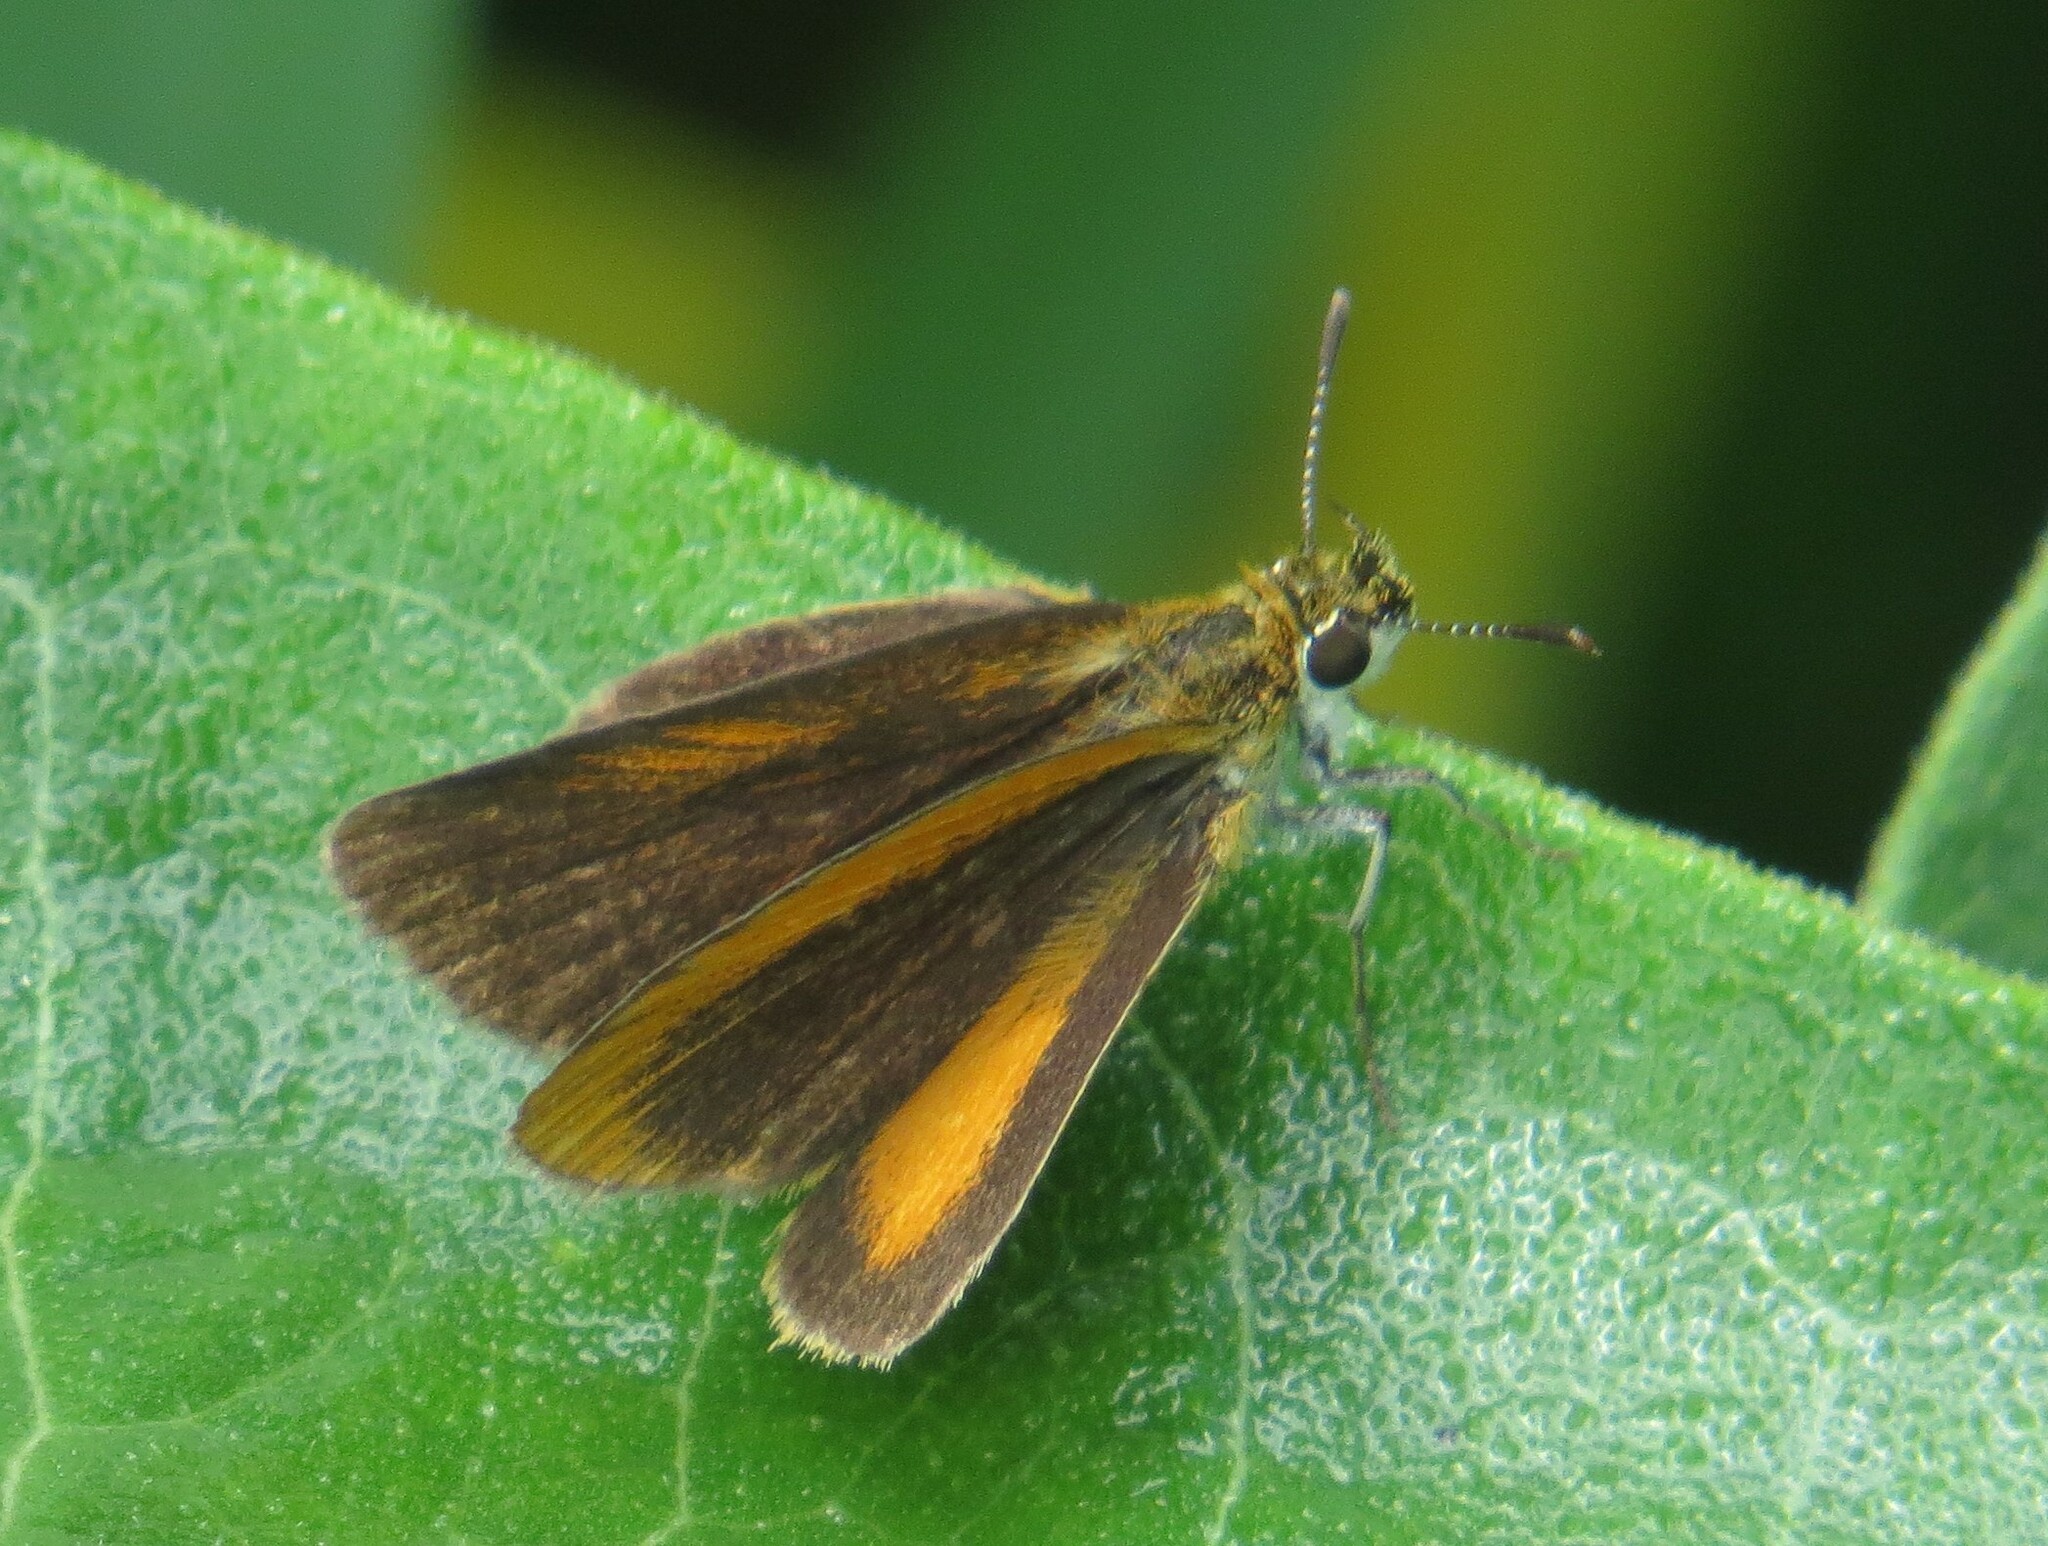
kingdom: Animalia
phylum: Arthropoda
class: Insecta
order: Lepidoptera
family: Hesperiidae
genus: Ancyloxypha
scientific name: Ancyloxypha numitor
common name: Least skipper
